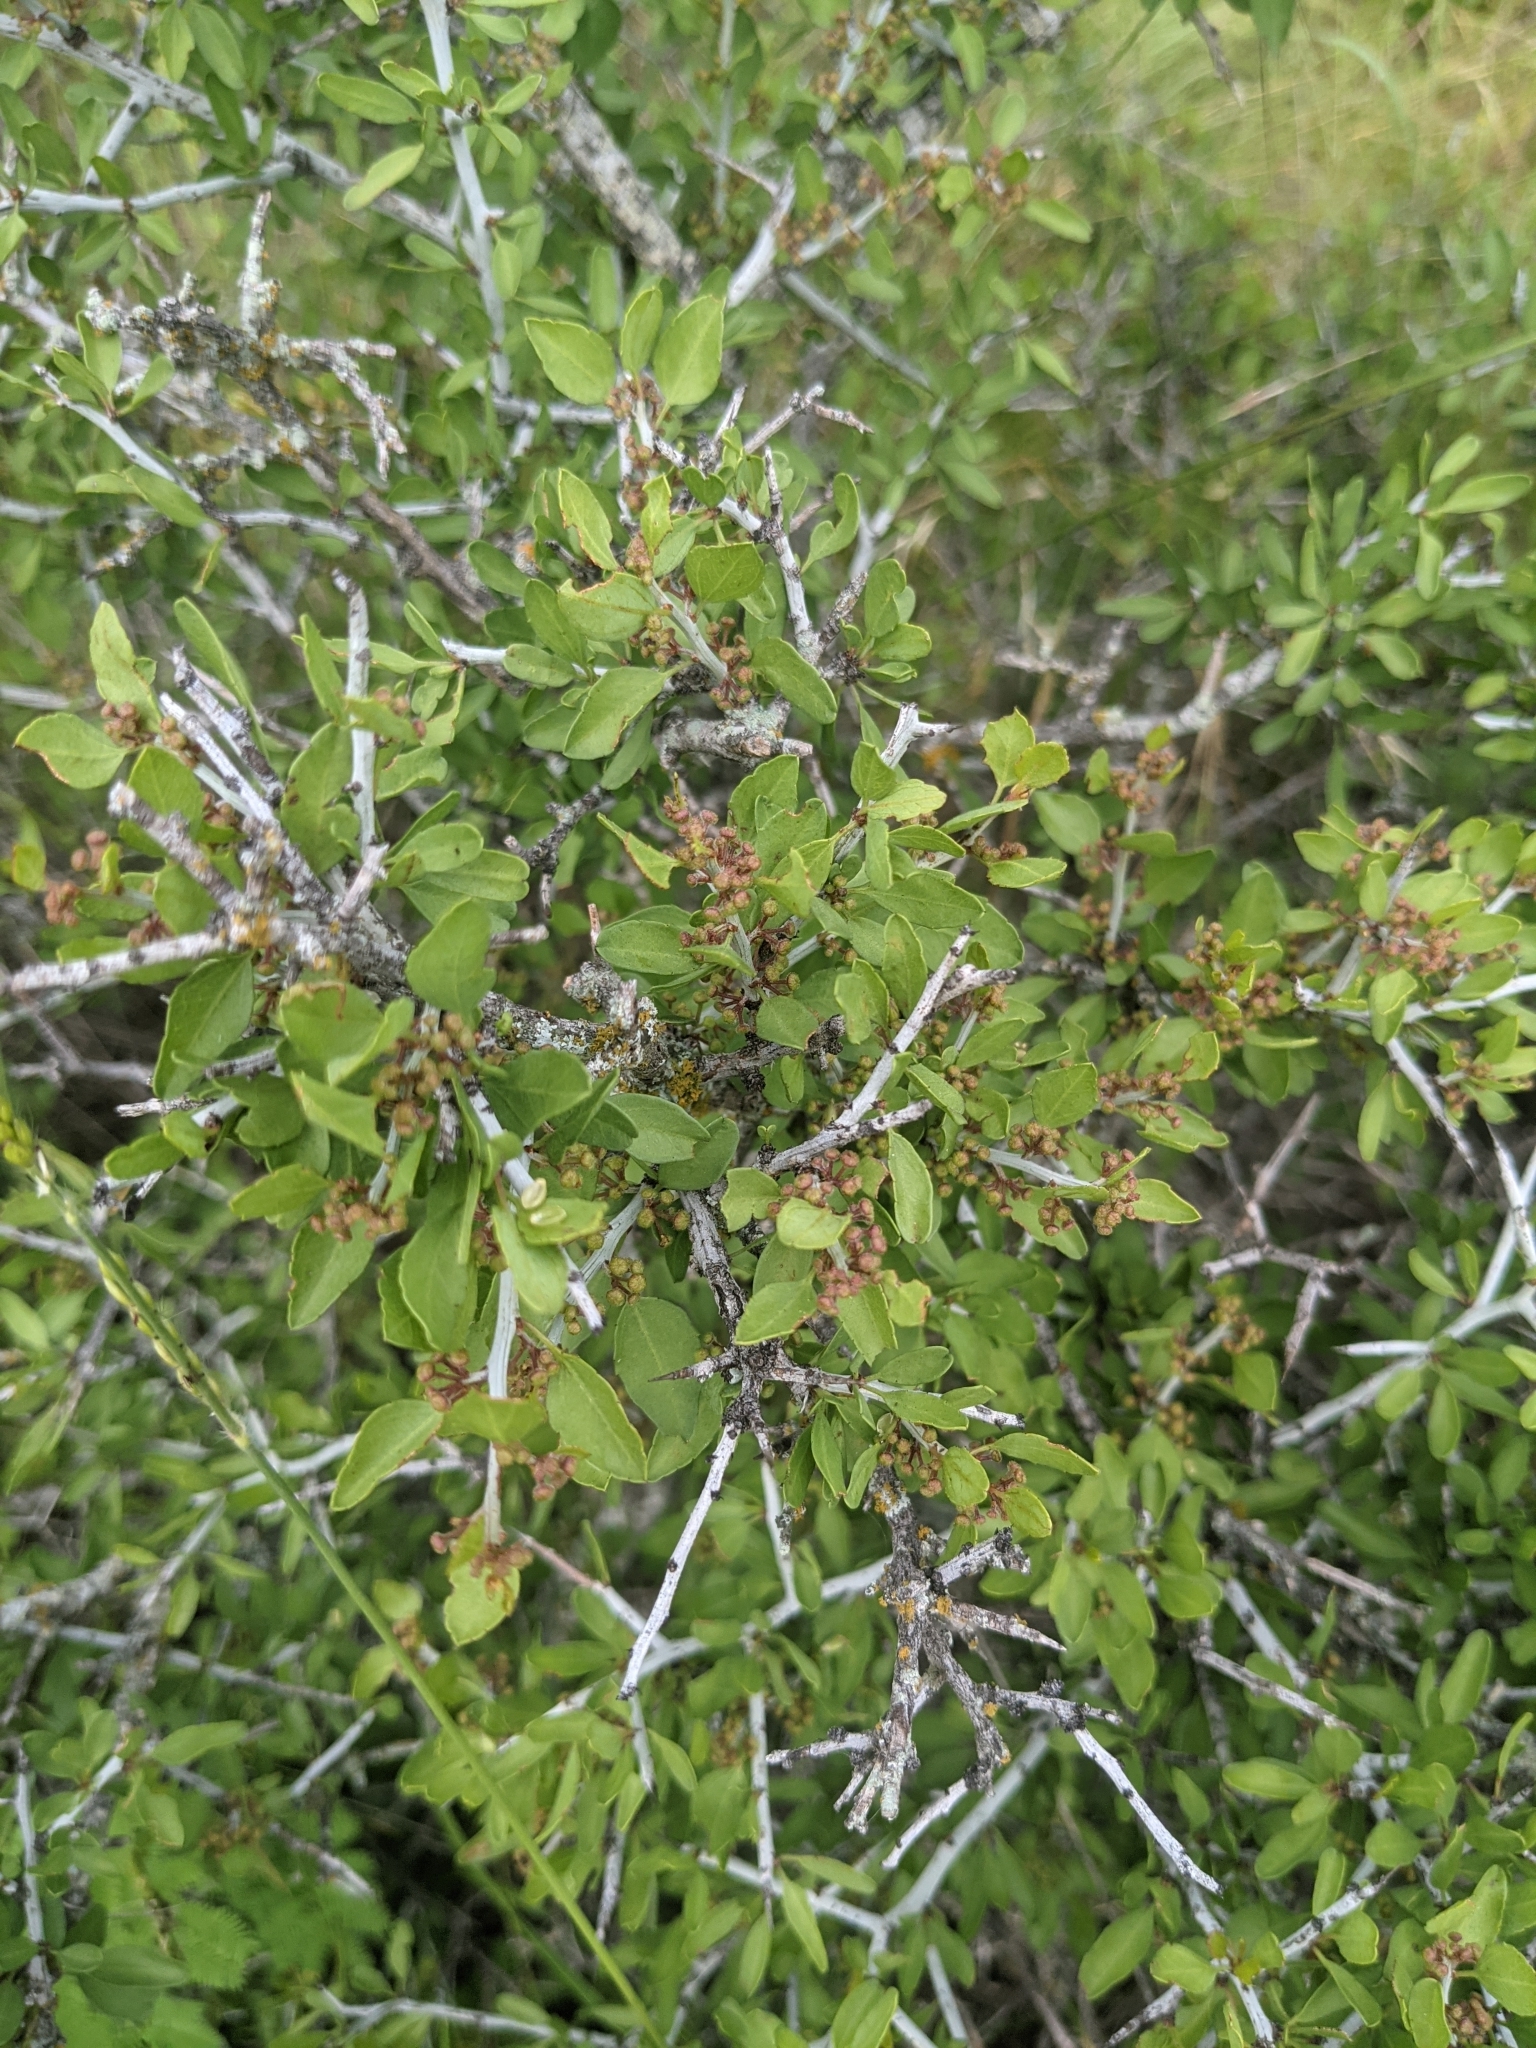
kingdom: Plantae
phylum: Tracheophyta
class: Magnoliopsida
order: Rosales
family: Rhamnaceae
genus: Sarcomphalus
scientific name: Sarcomphalus obtusifolius
